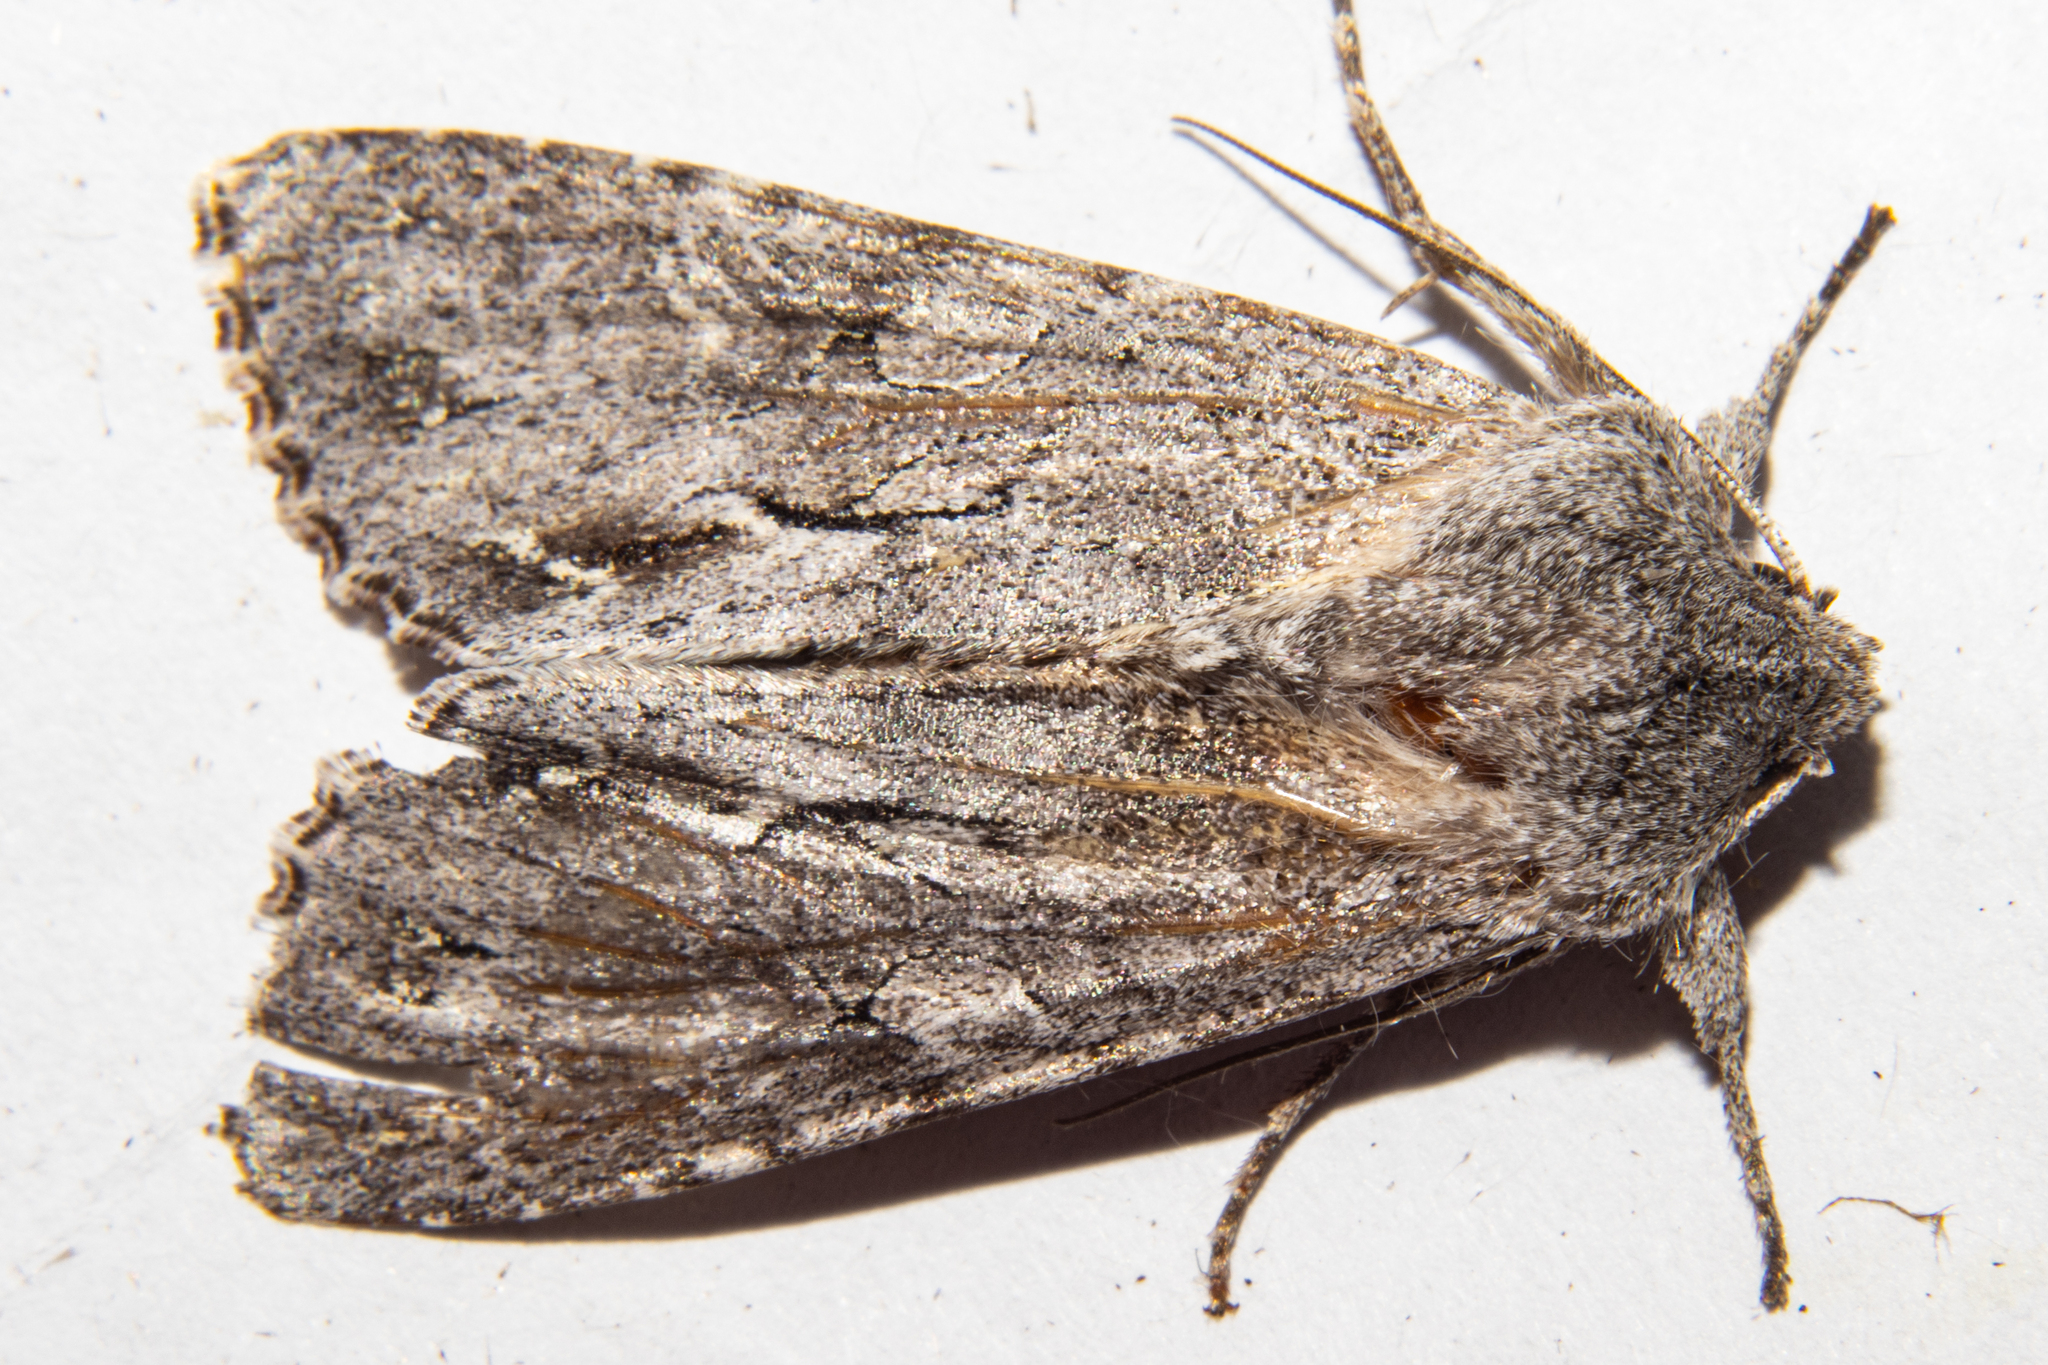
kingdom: Animalia
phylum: Arthropoda
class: Insecta
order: Lepidoptera
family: Noctuidae
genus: Ichneutica
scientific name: Ichneutica
